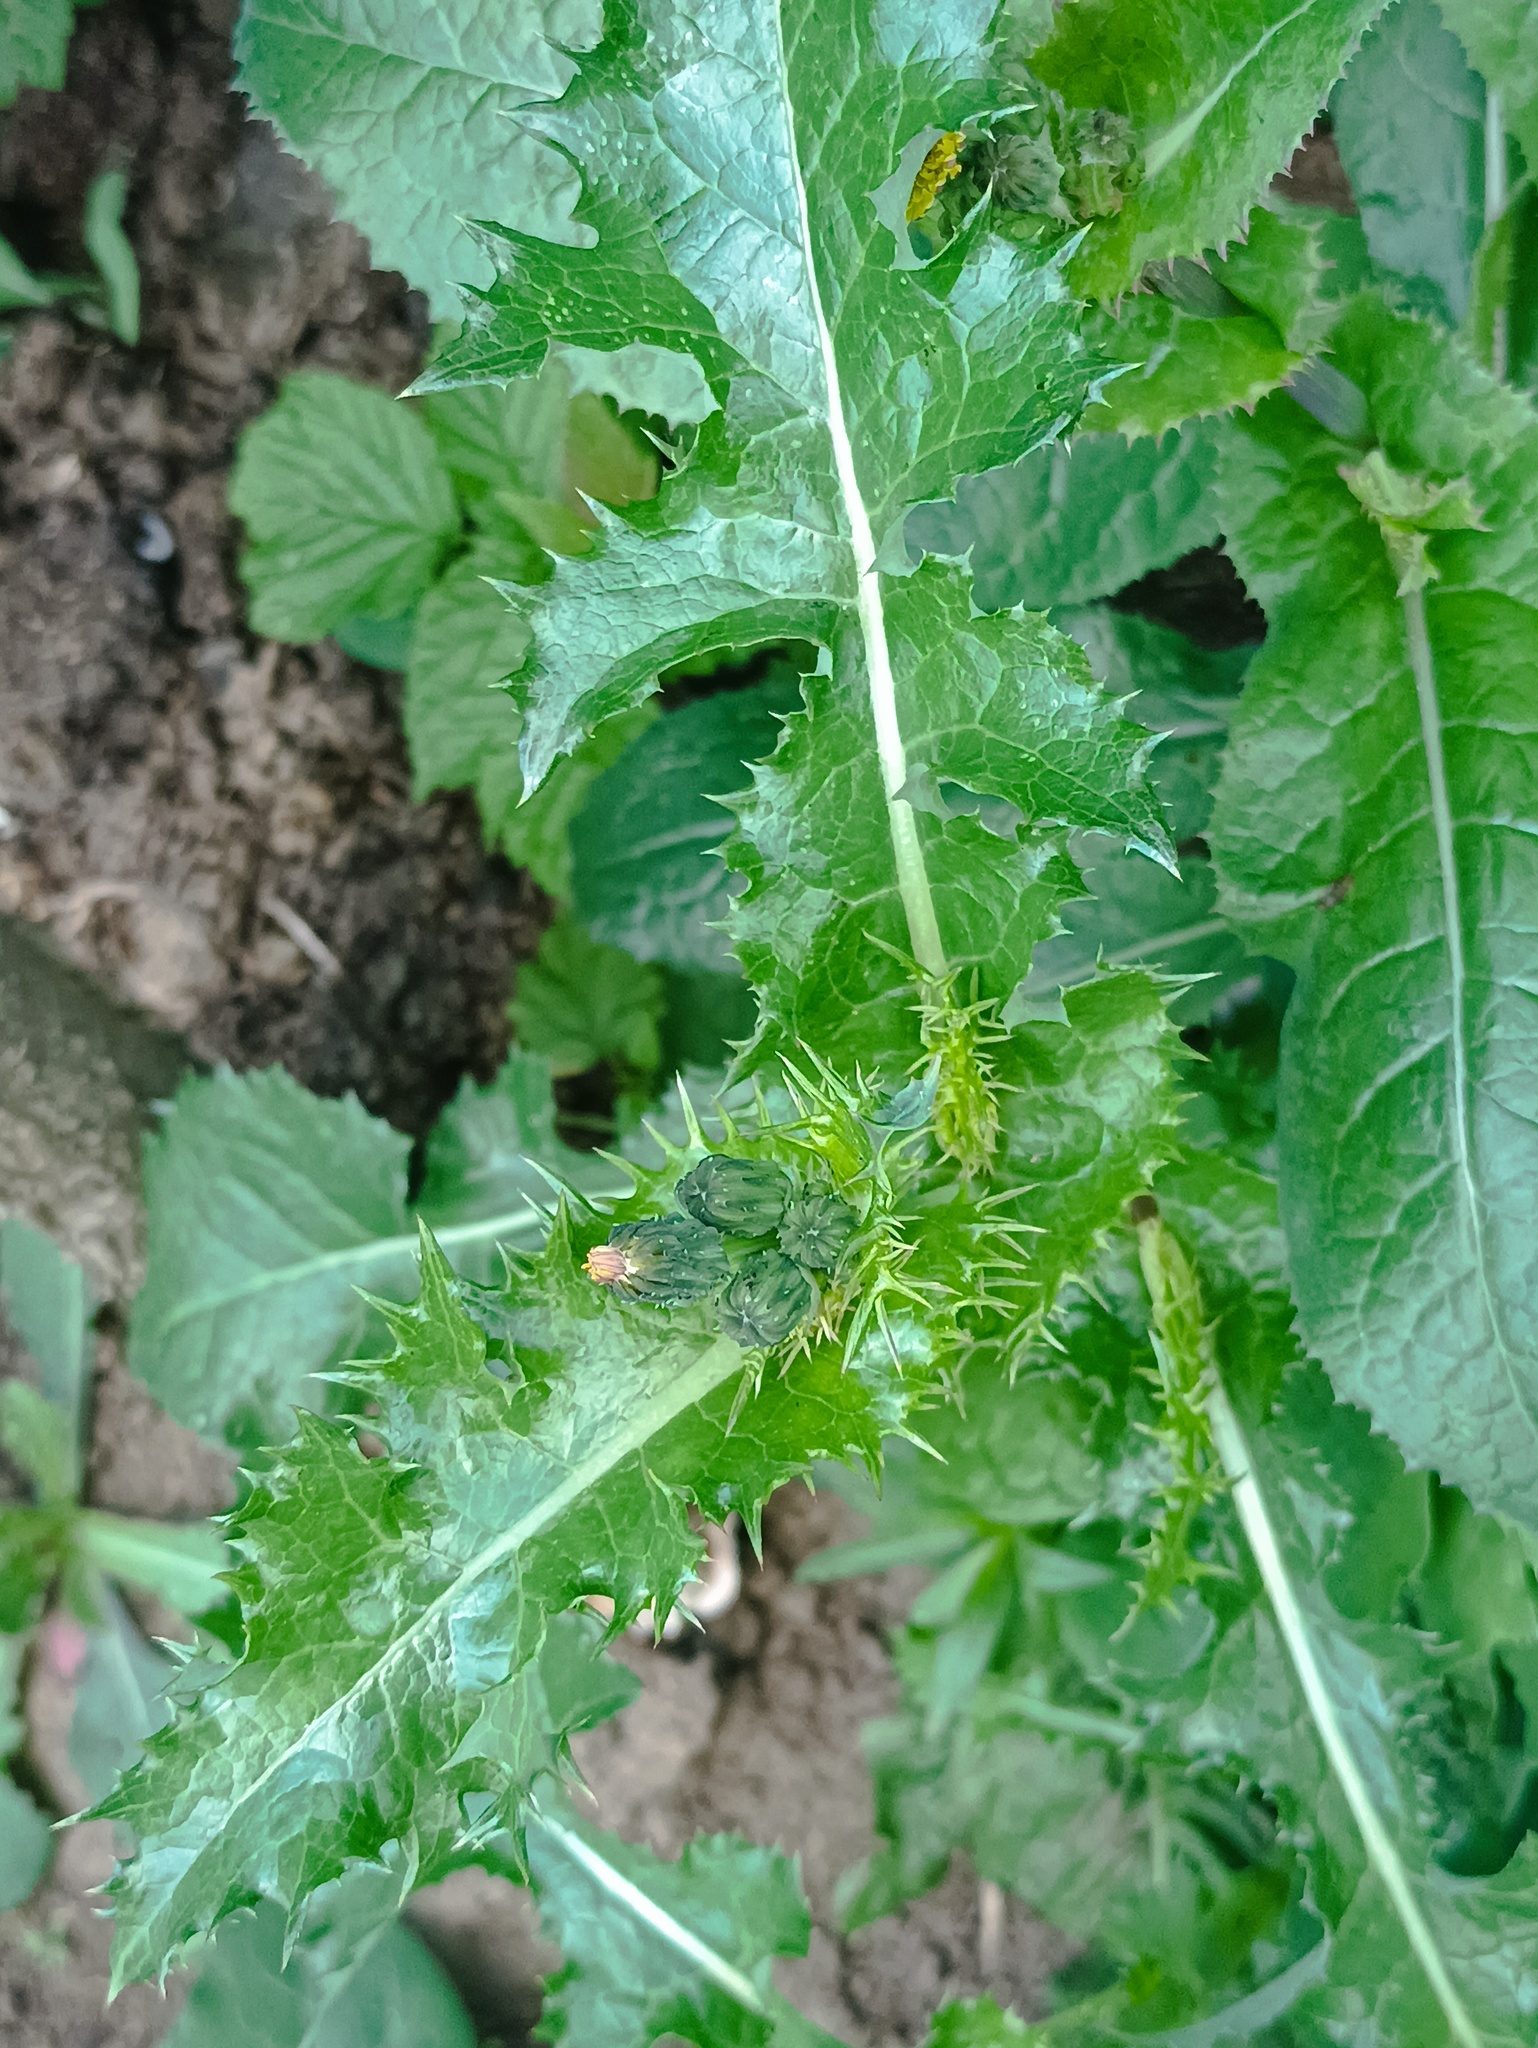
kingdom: Plantae
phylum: Tracheophyta
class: Magnoliopsida
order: Asterales
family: Asteraceae
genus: Sonchus
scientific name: Sonchus asper
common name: Prickly sow-thistle
